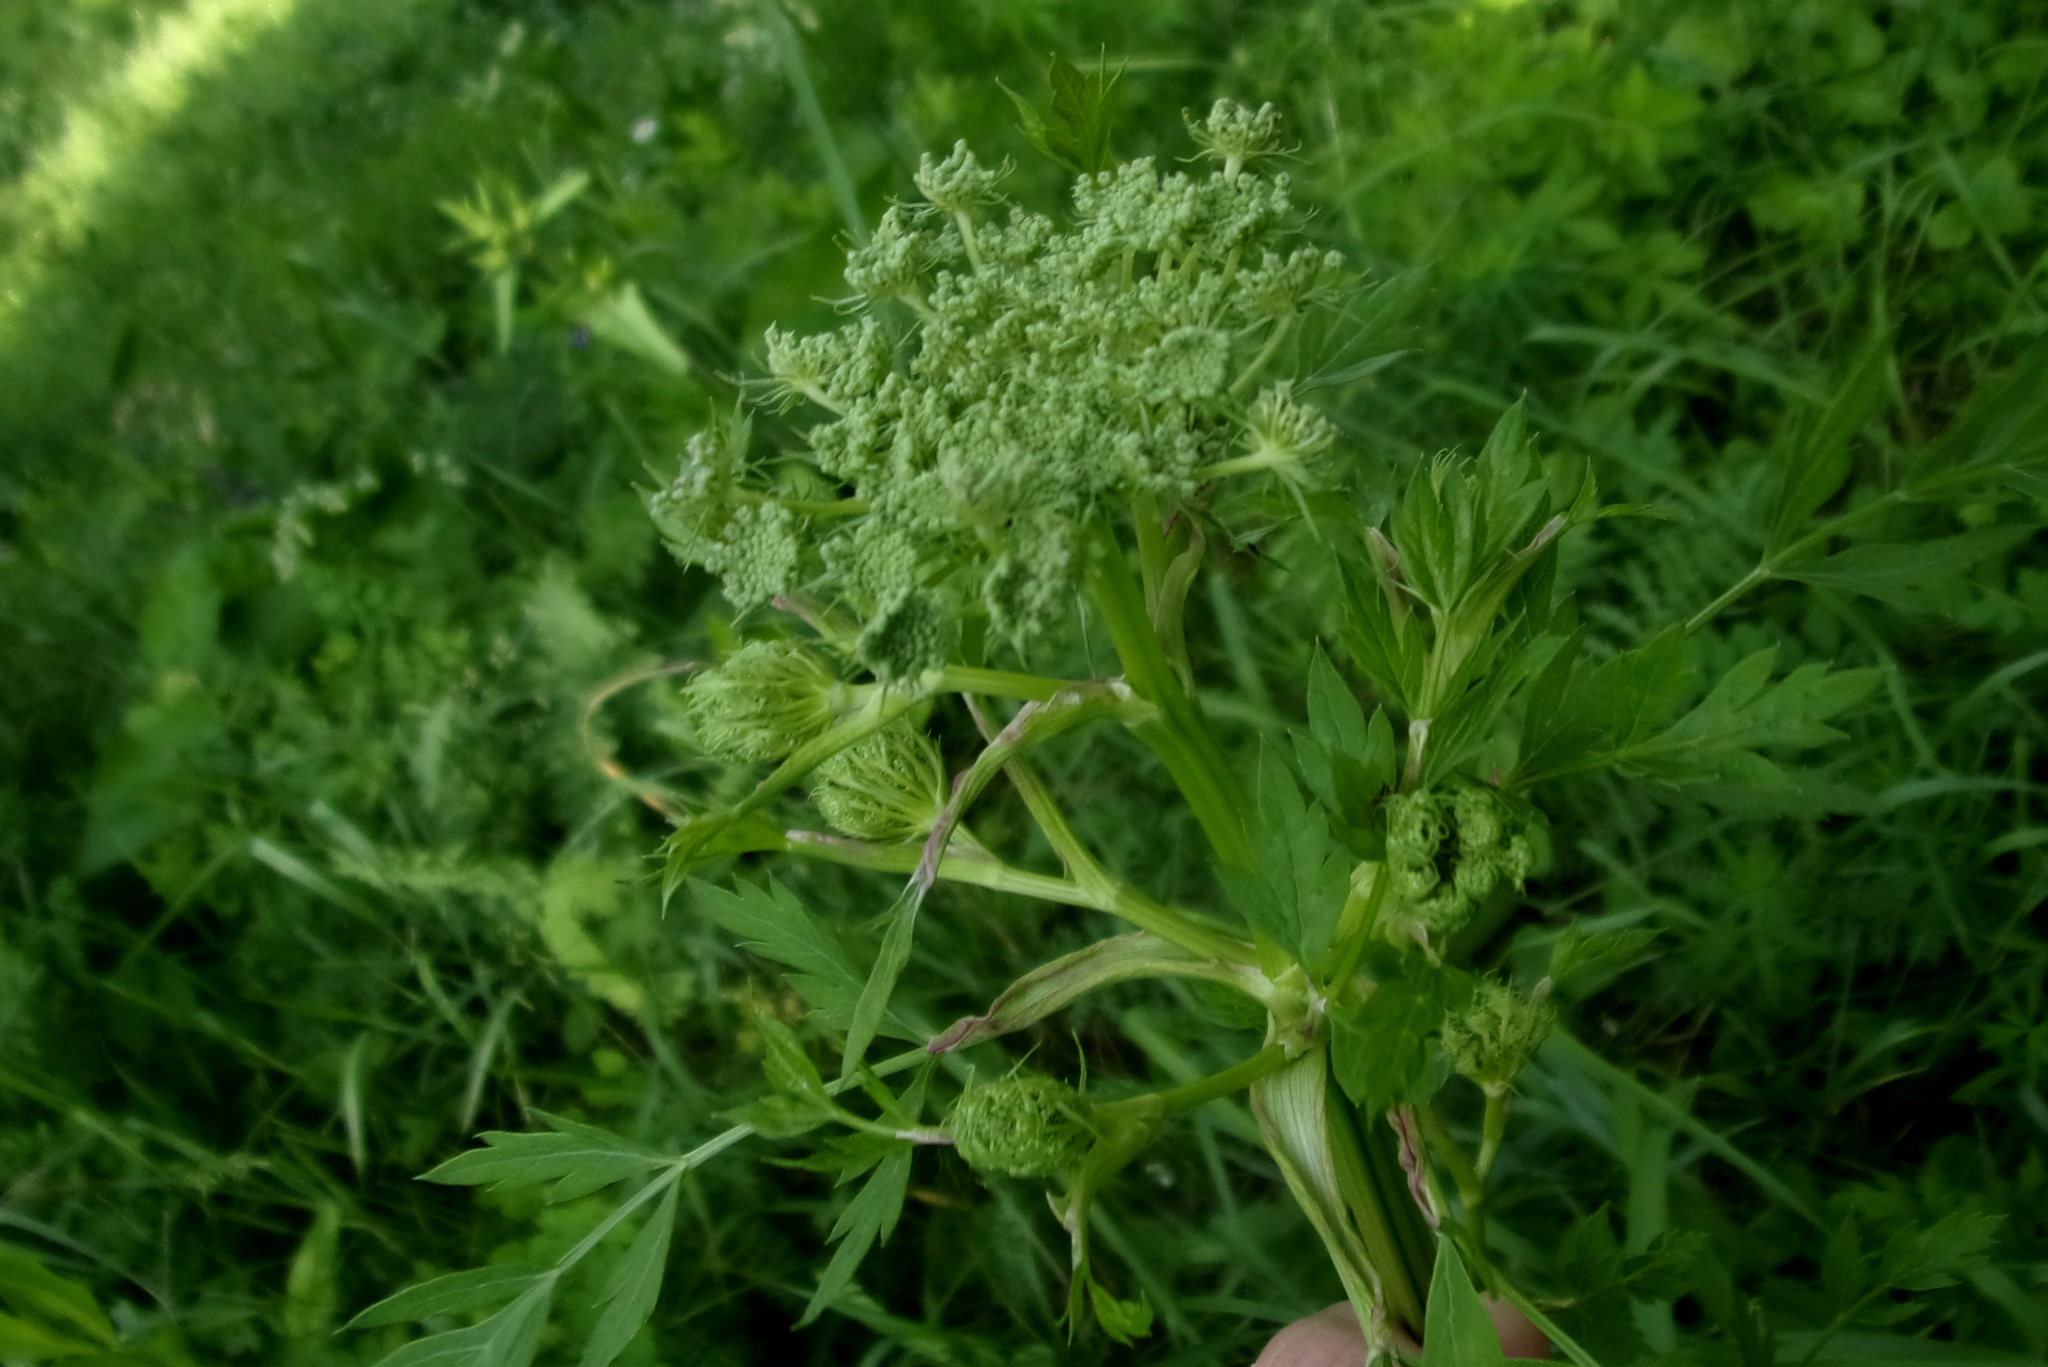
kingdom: Plantae
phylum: Tracheophyta
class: Magnoliopsida
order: Apiales
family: Apiaceae
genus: Seseli
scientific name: Seseli libanotis
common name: Mooncarrot
